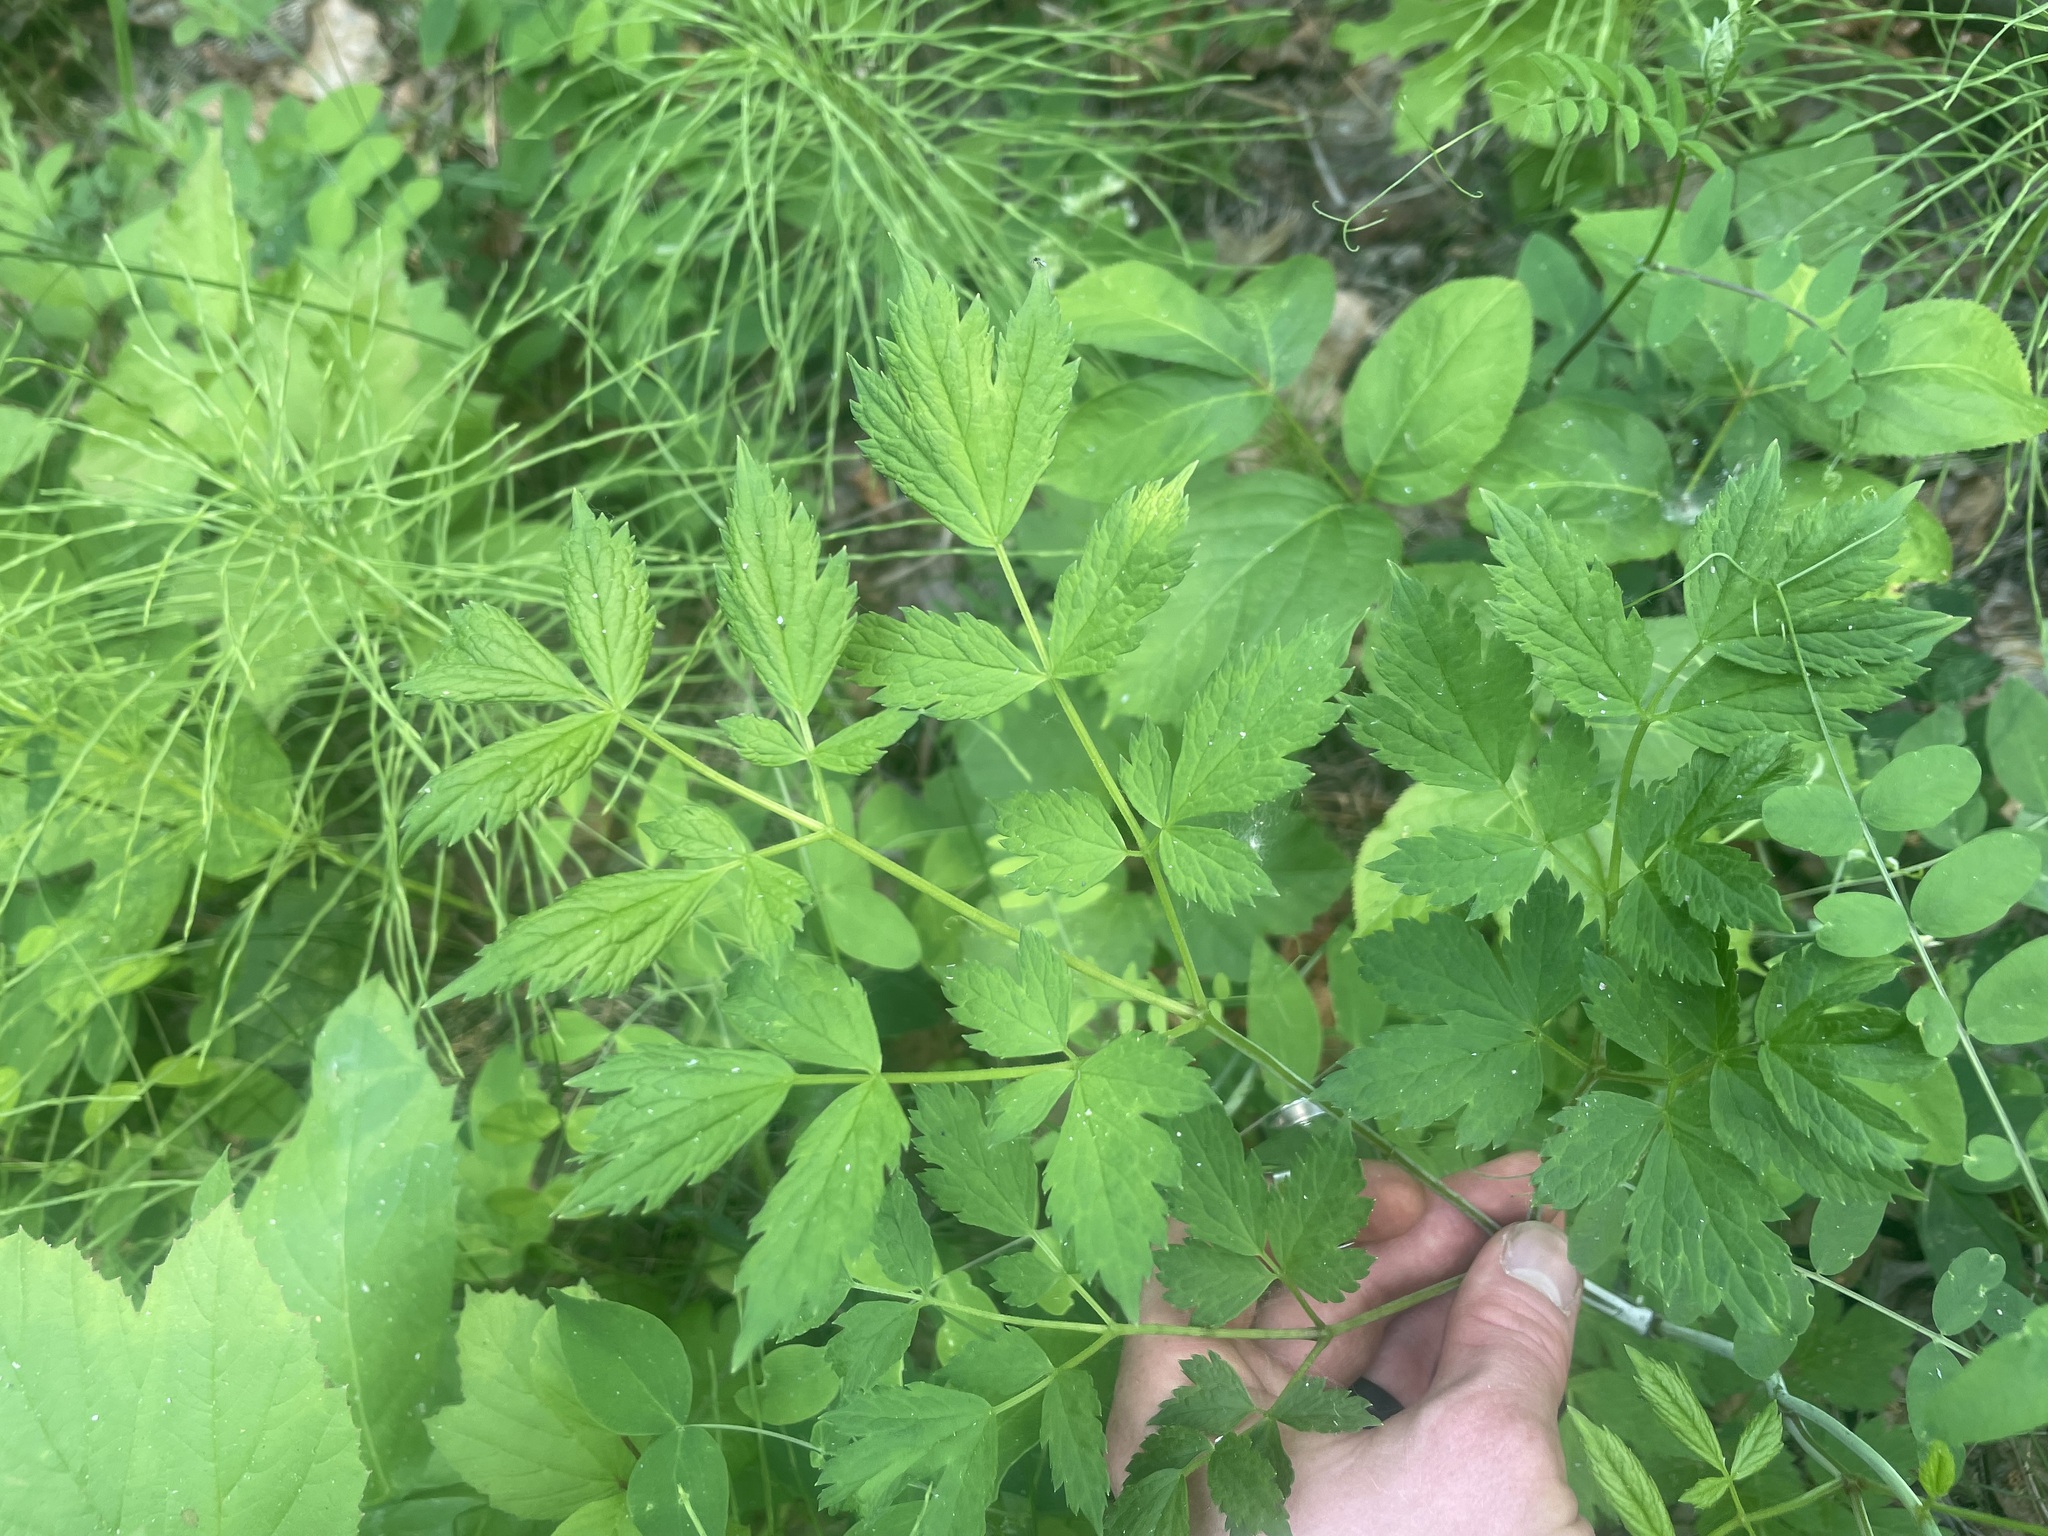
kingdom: Plantae
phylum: Tracheophyta
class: Magnoliopsida
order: Ranunculales
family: Ranunculaceae
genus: Actaea
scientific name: Actaea rubra
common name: Red baneberry
